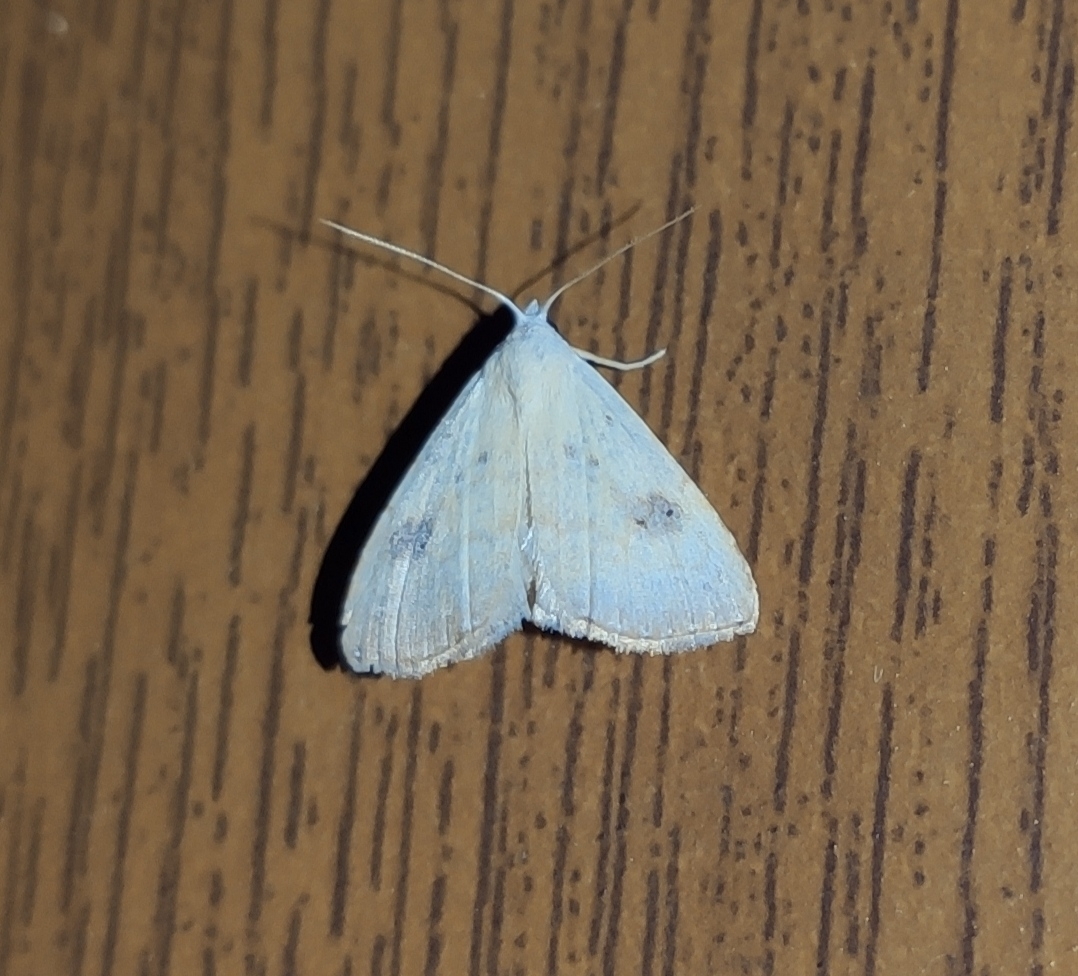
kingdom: Animalia
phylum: Arthropoda
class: Insecta
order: Lepidoptera
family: Erebidae
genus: Rivula
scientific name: Rivula sericealis
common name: Straw dot
